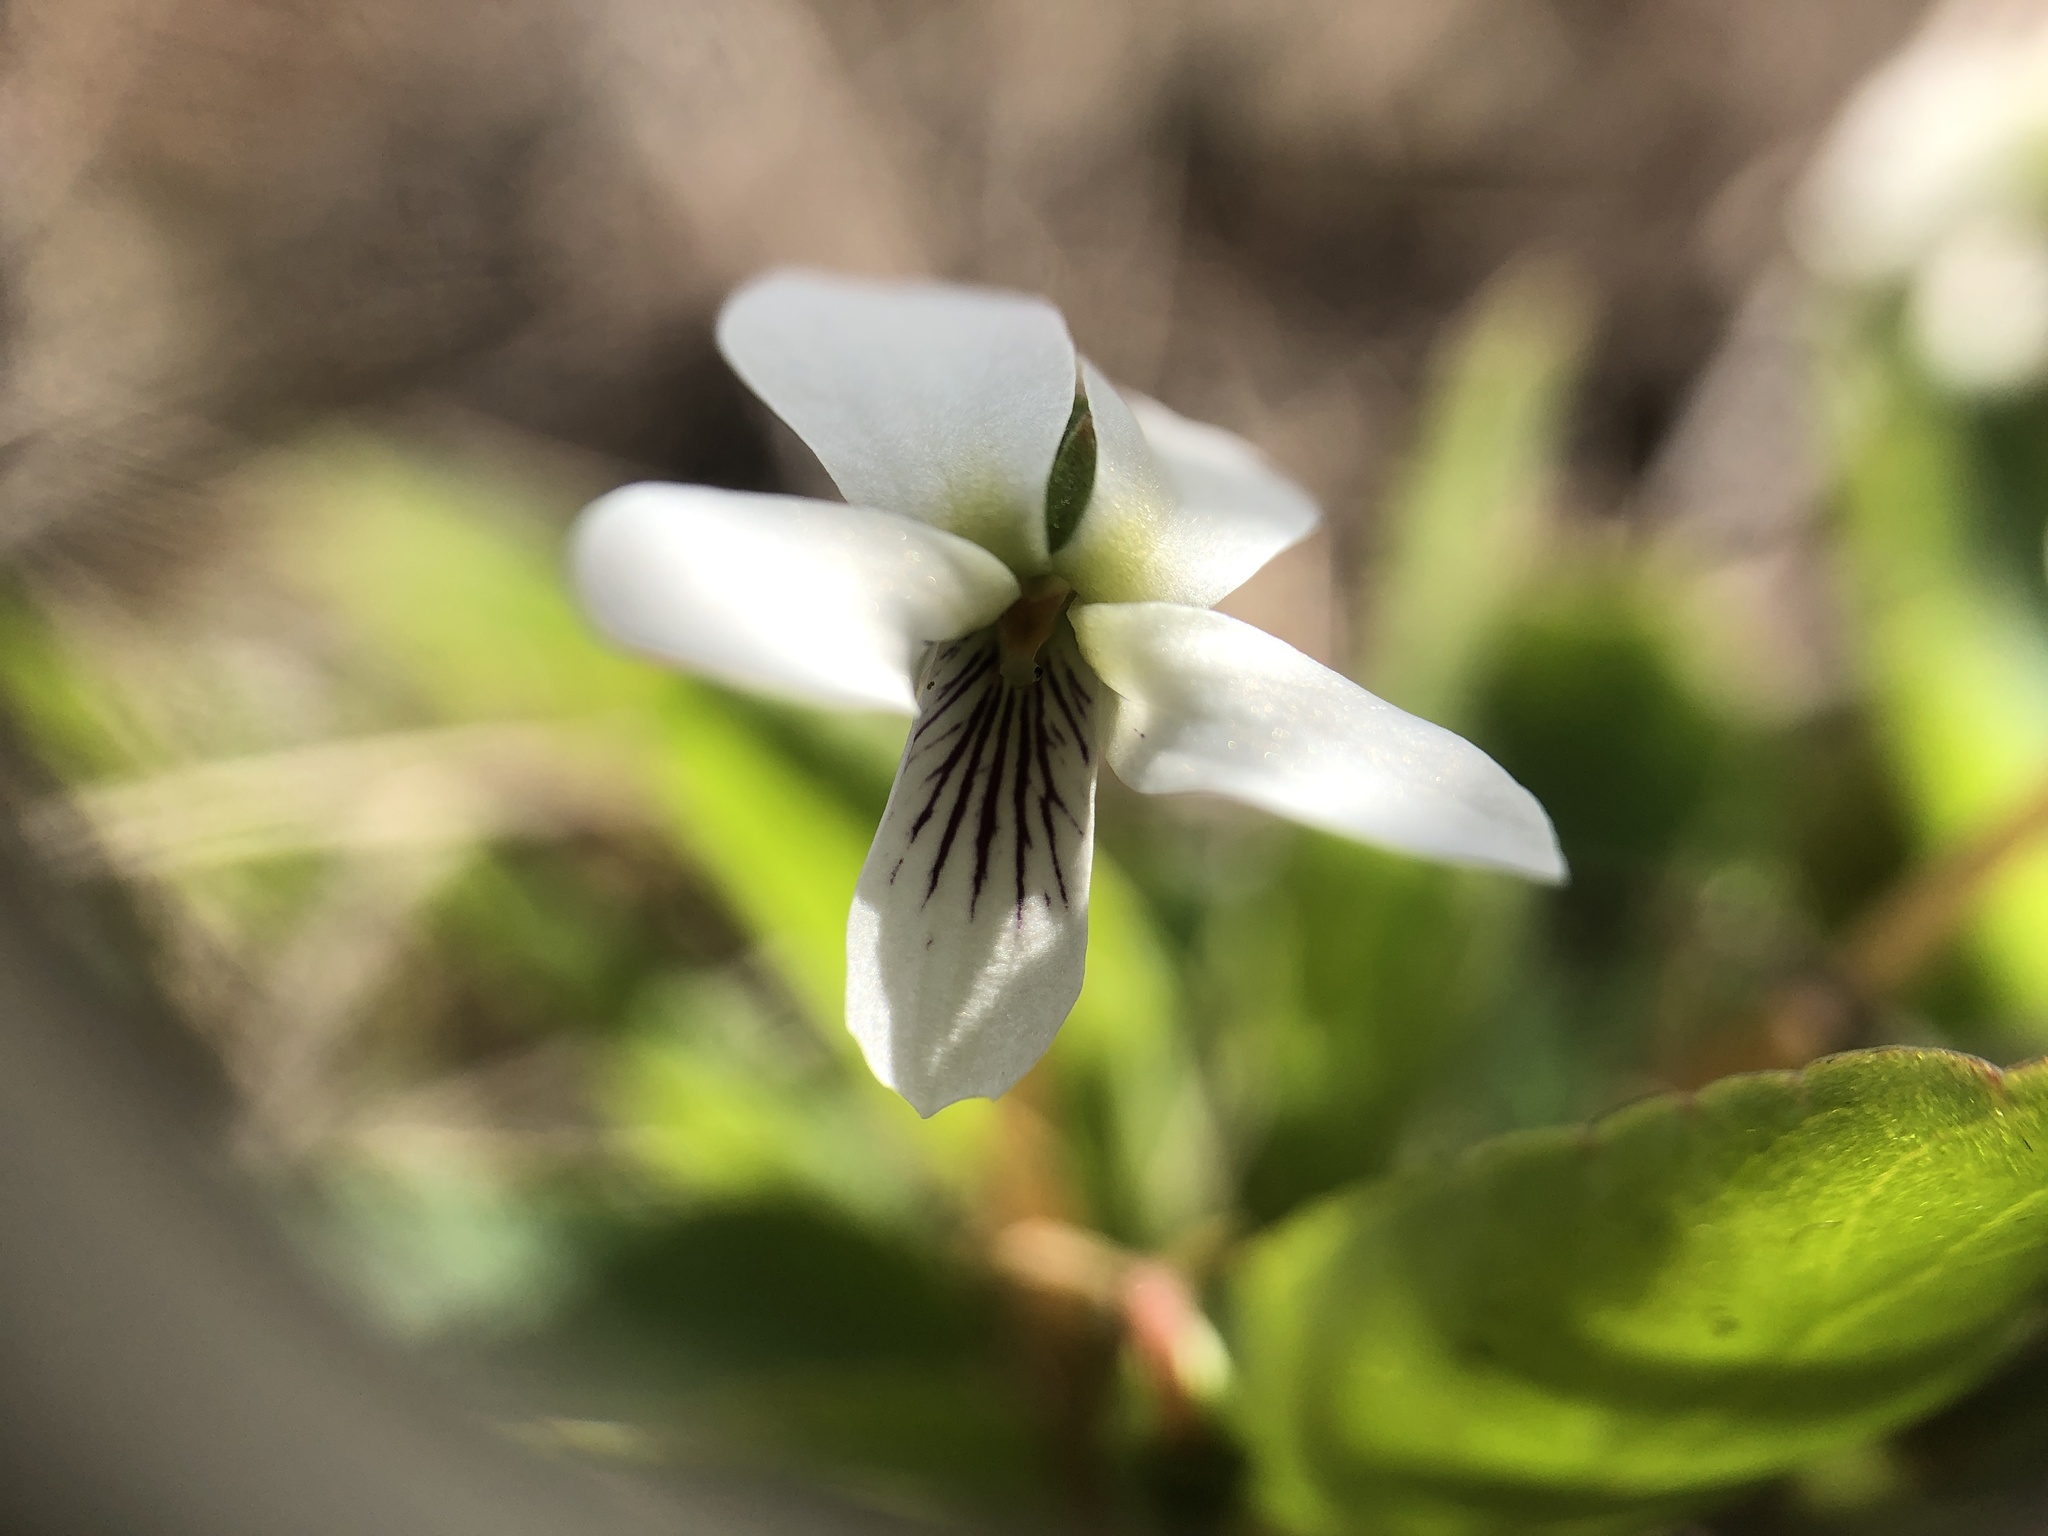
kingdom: Plantae
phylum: Tracheophyta
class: Magnoliopsida
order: Malpighiales
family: Violaceae
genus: Viola
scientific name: Viola primulifolia
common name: Primrose-leaf violet
